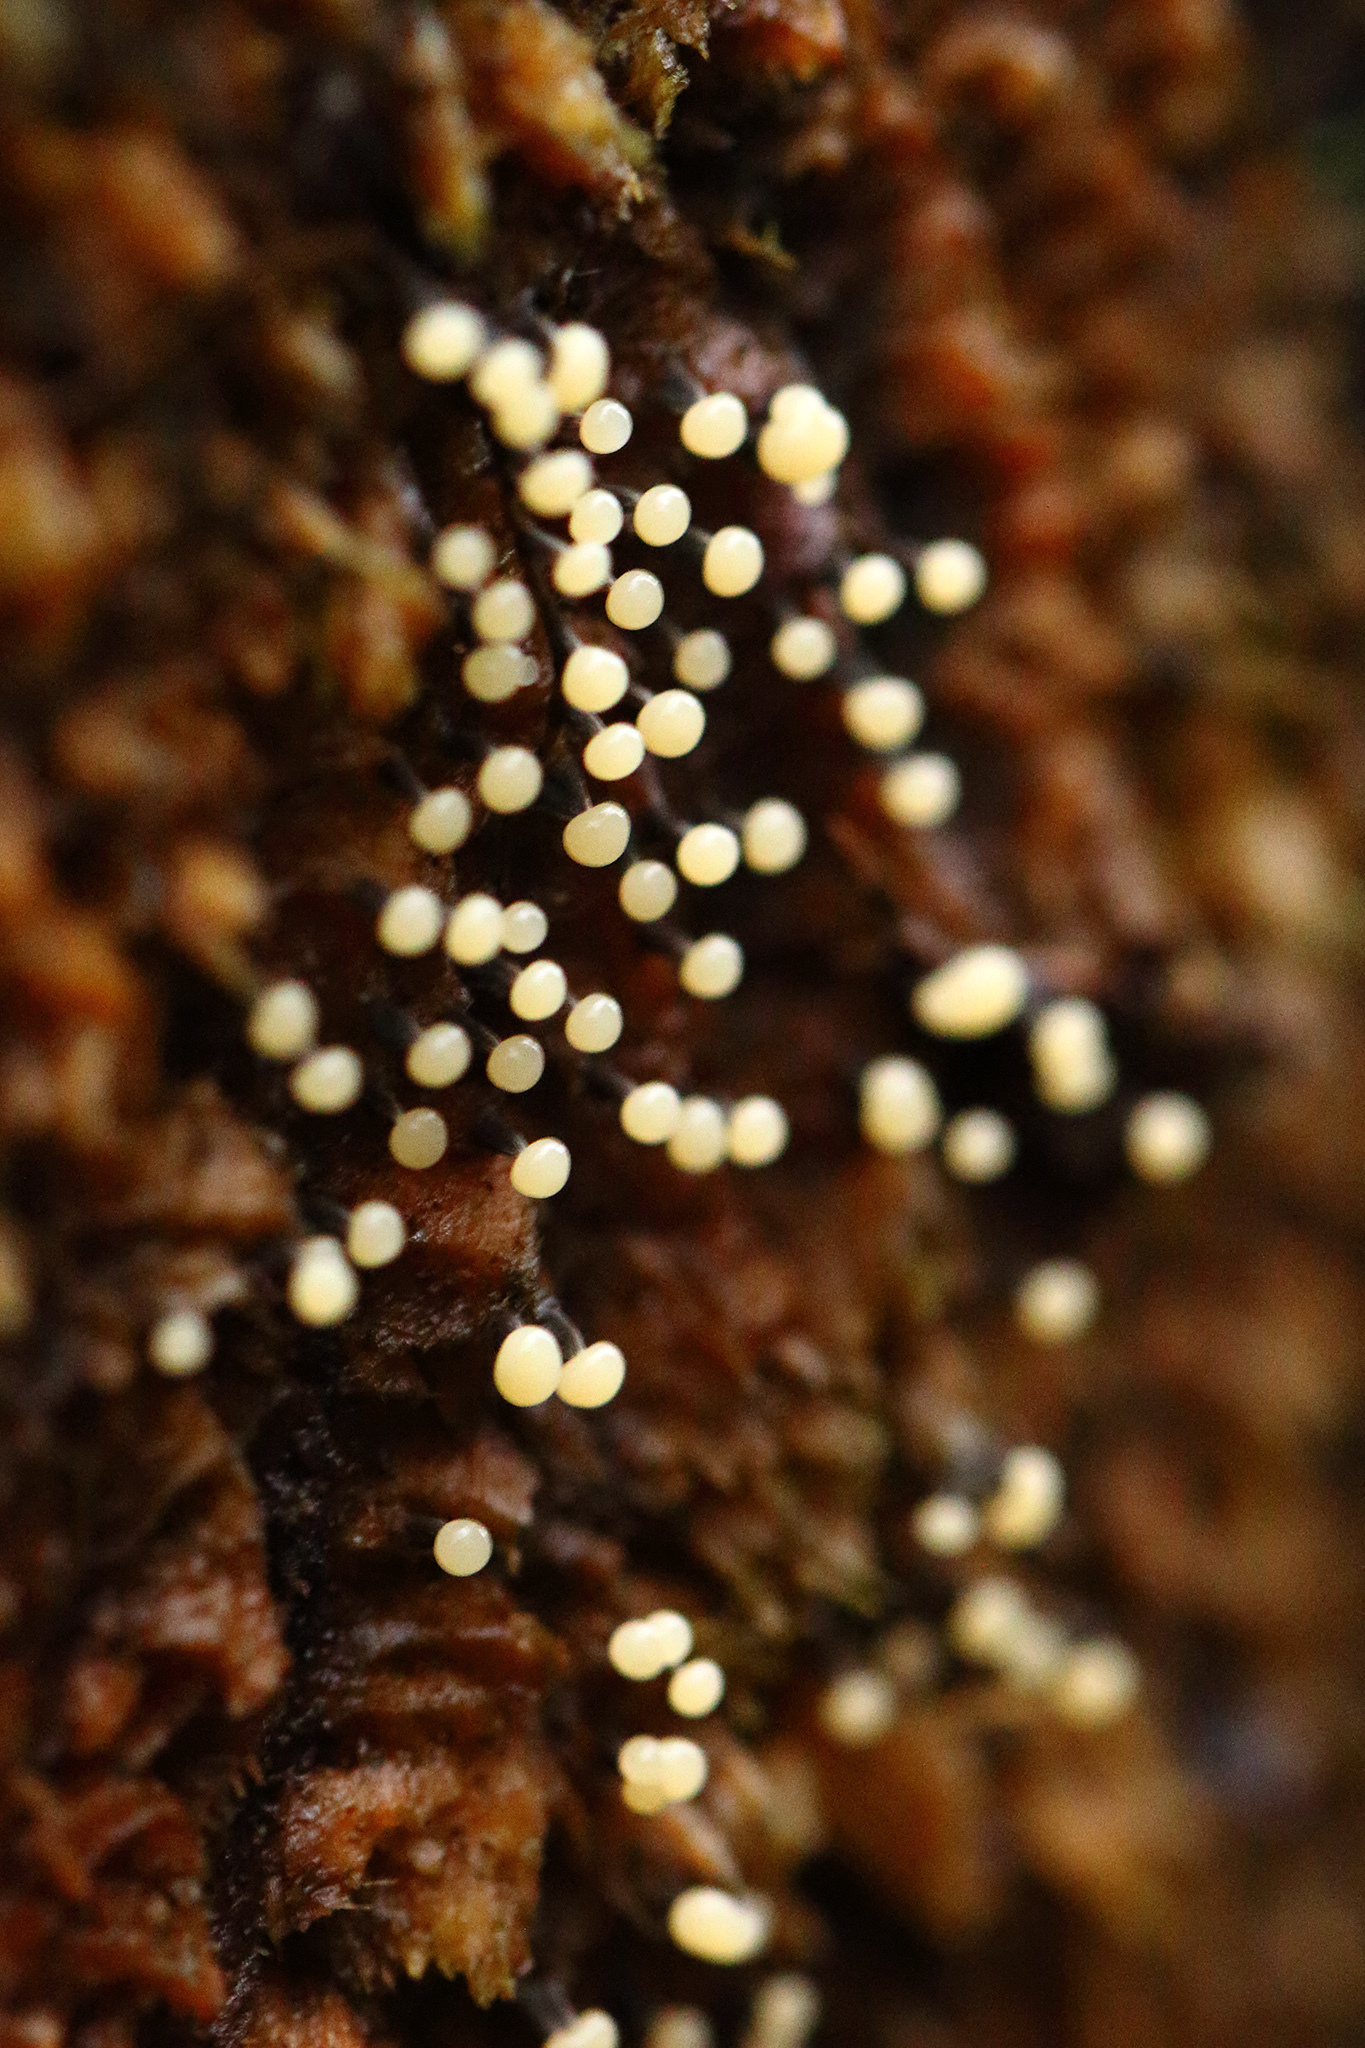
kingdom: Protozoa
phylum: Mycetozoa
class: Myxomycetes
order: Physarales
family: Physaraceae
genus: Physarum
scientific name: Physarum album
